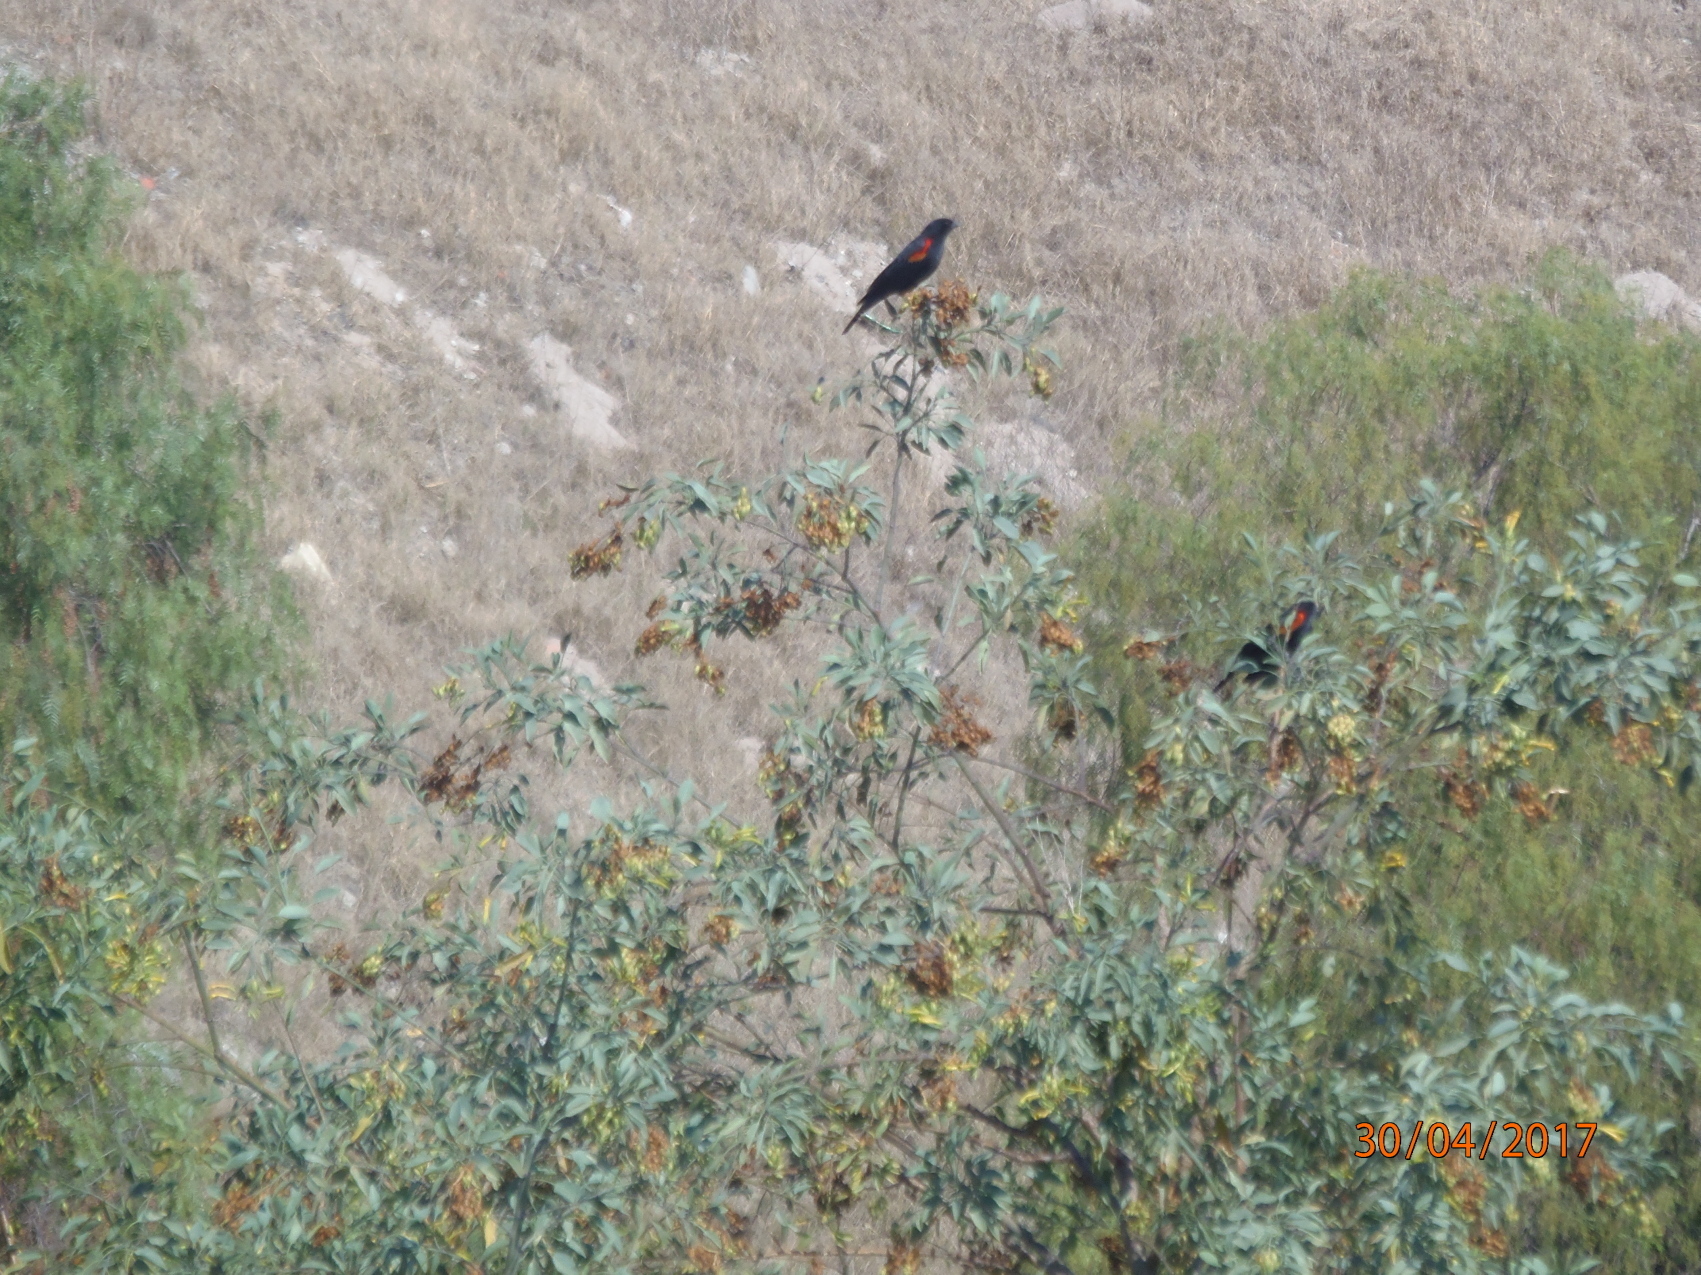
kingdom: Animalia
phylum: Chordata
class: Aves
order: Passeriformes
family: Icteridae
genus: Agelaius
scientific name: Agelaius phoeniceus
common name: Red-winged blackbird
